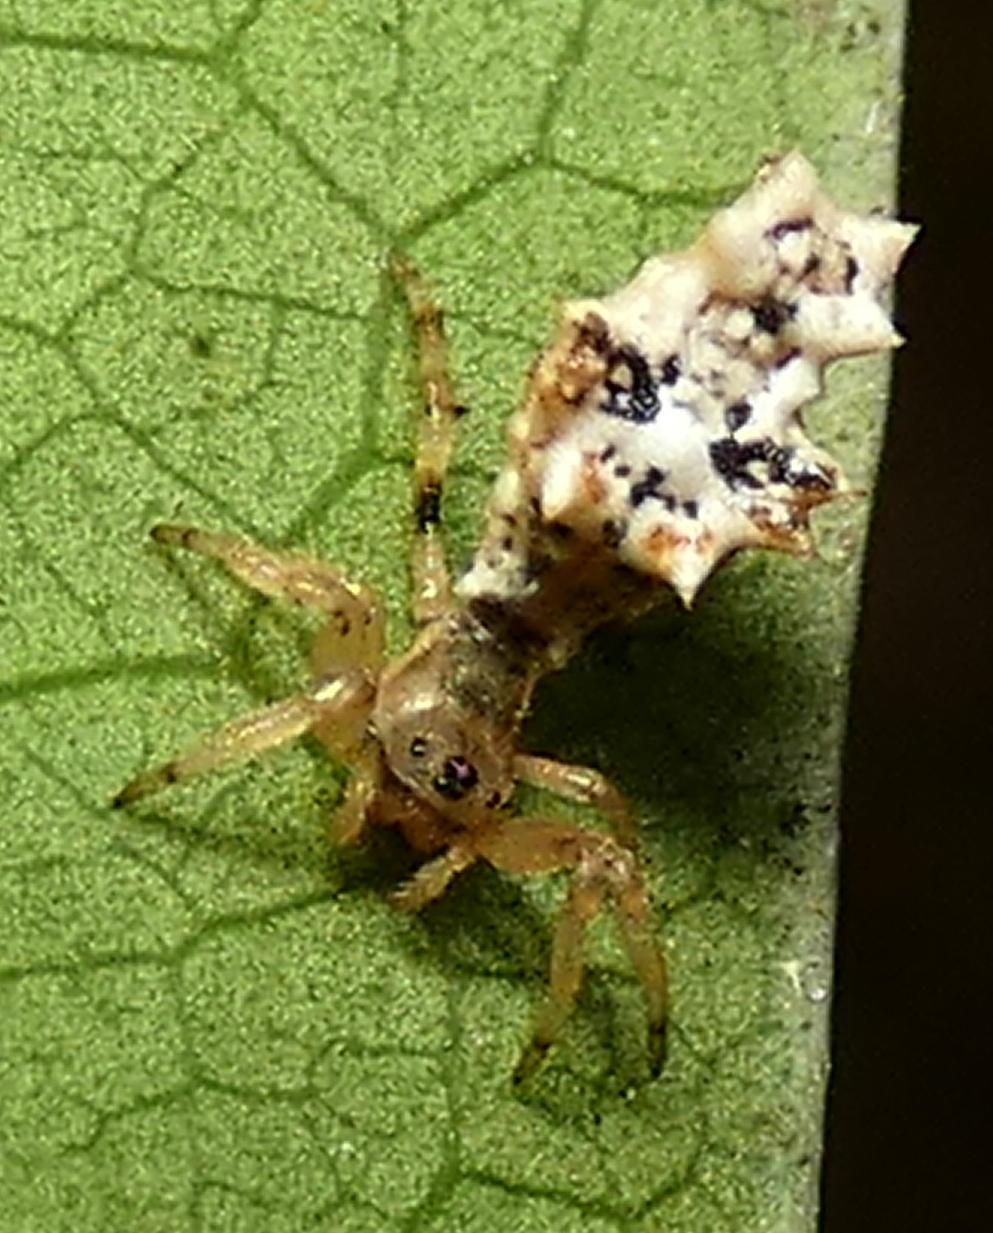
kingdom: Animalia
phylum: Arthropoda
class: Arachnida
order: Araneae
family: Araneidae
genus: Micrathena
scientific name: Micrathena horrida
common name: Orb weavers
